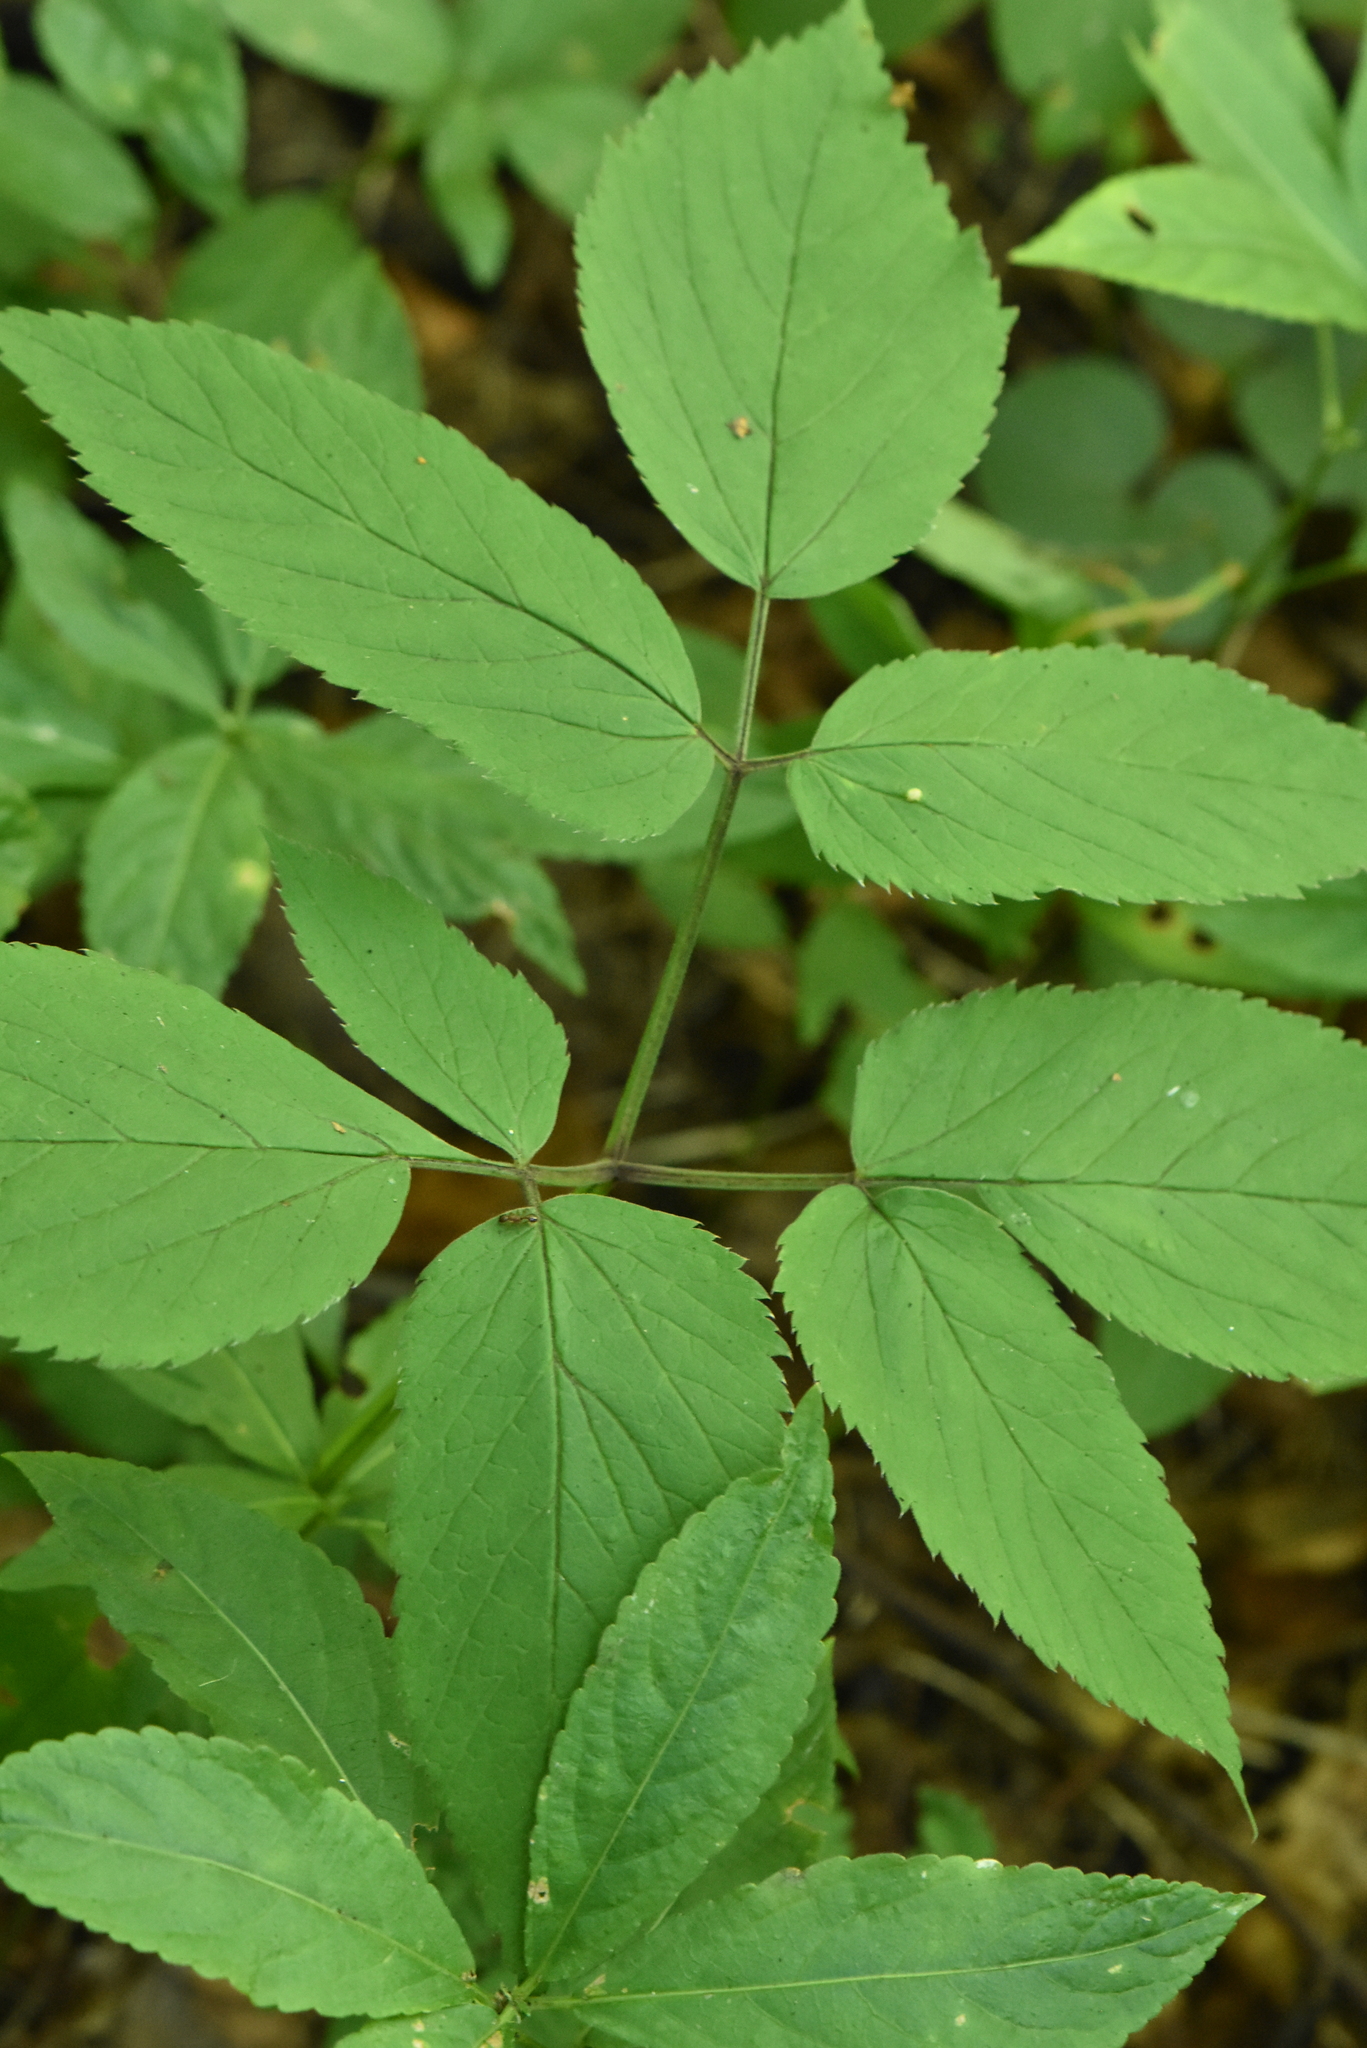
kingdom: Plantae
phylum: Tracheophyta
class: Magnoliopsida
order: Apiales
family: Apiaceae
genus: Aegopodium
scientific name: Aegopodium podagraria
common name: Ground-elder
